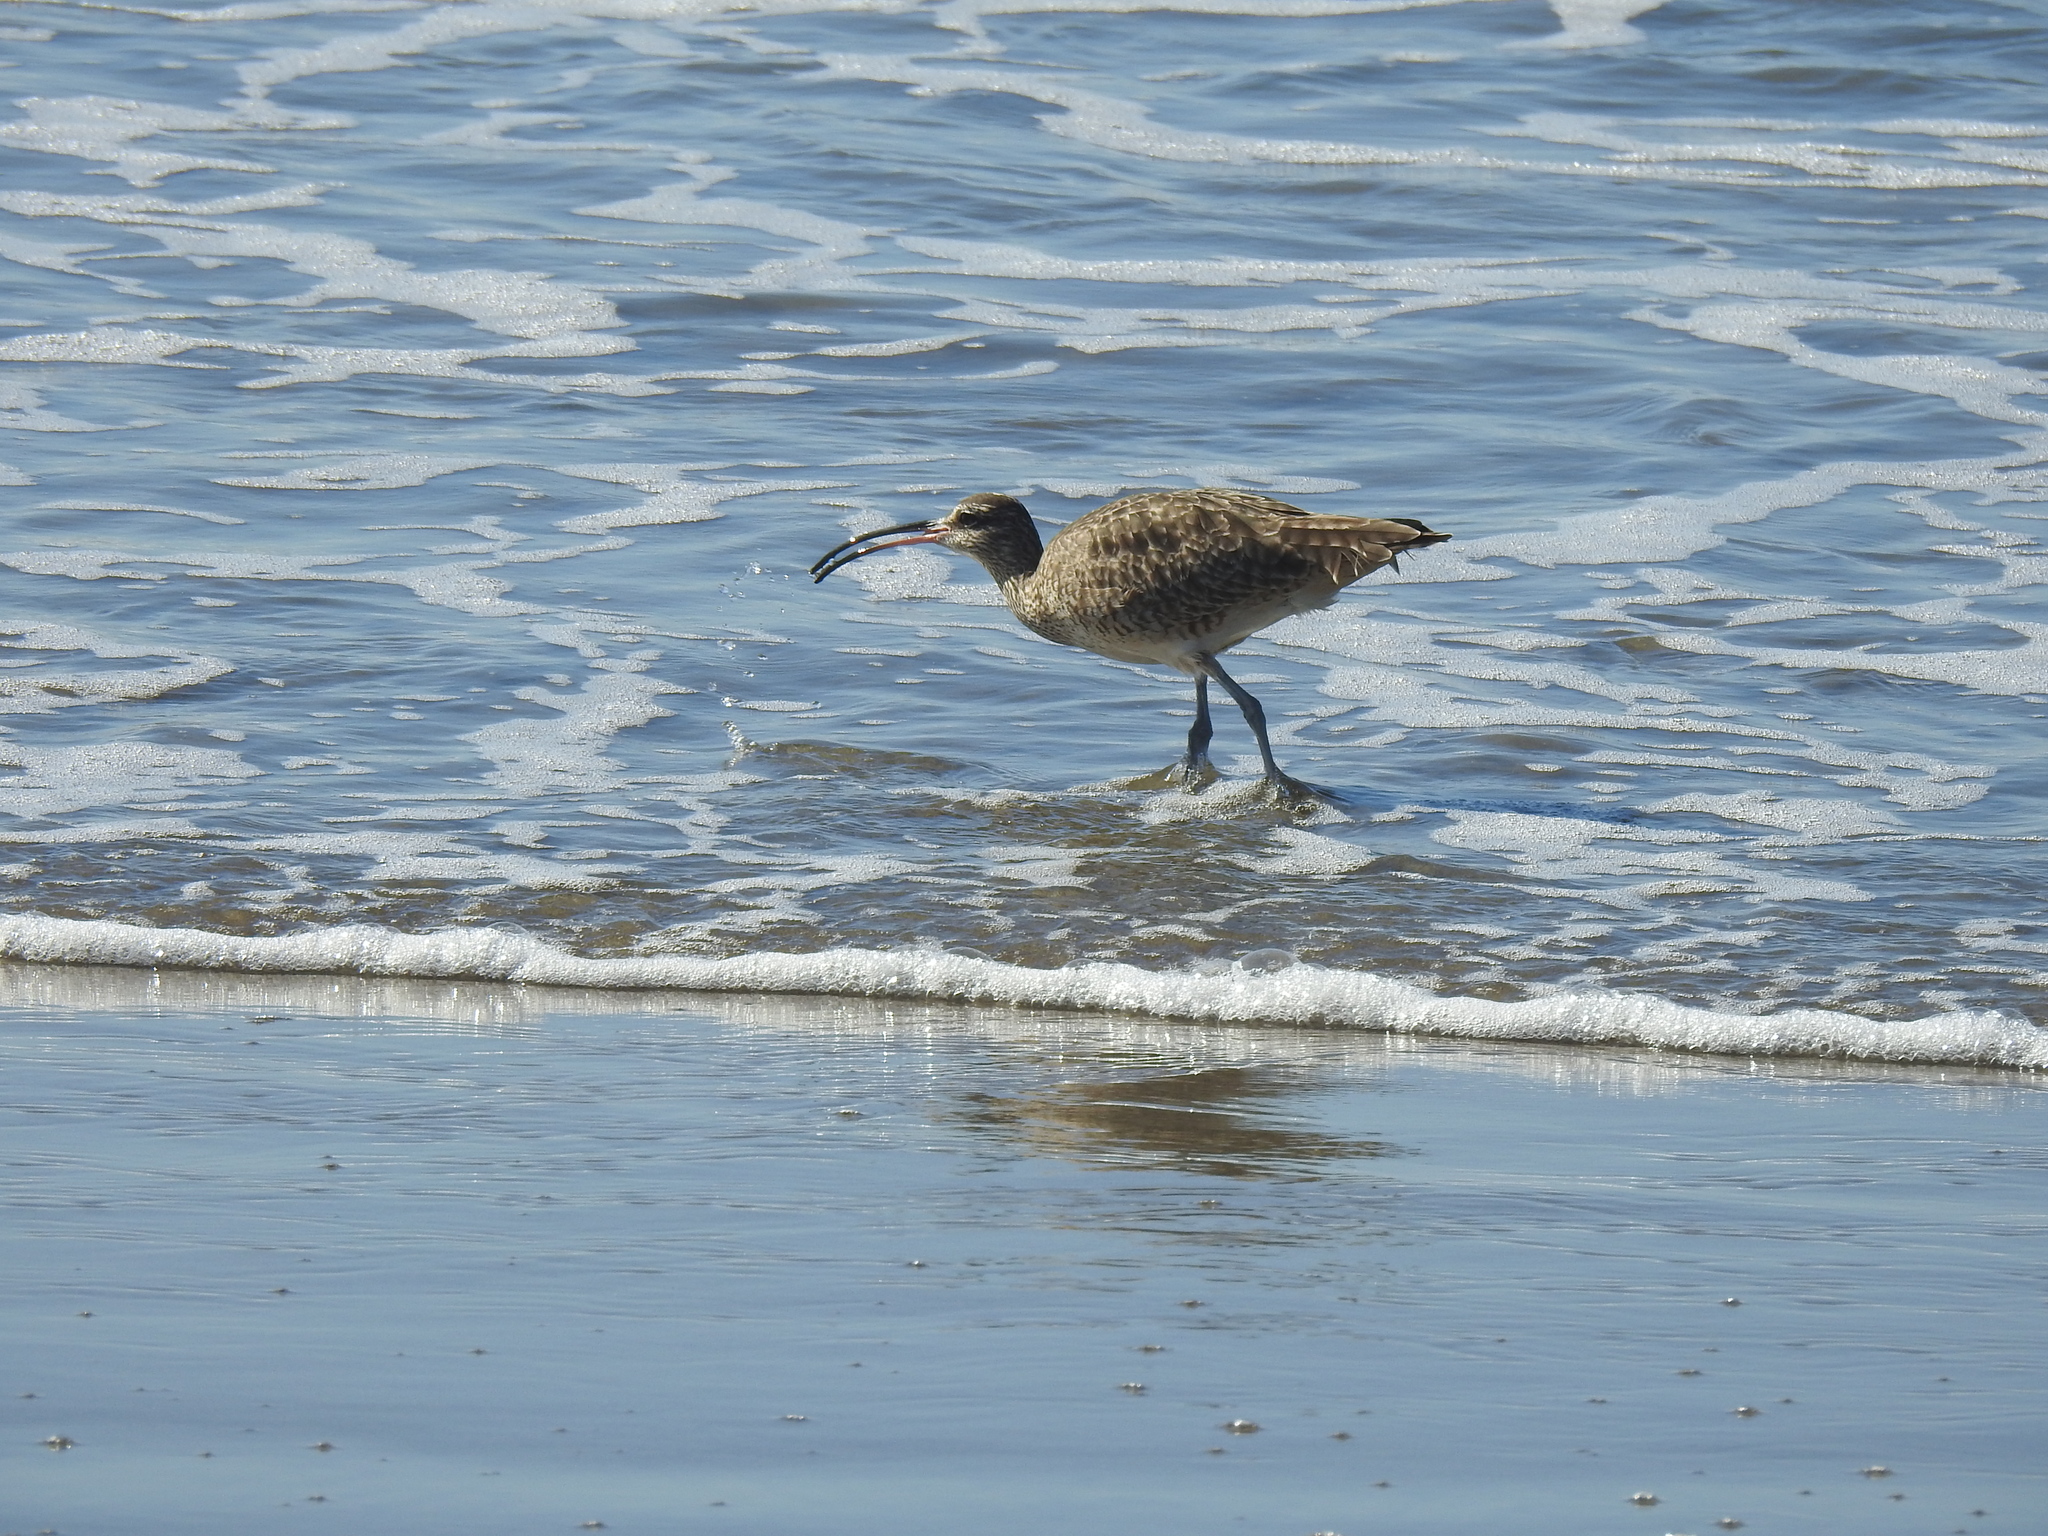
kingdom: Animalia
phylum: Chordata
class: Aves
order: Charadriiformes
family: Scolopacidae
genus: Numenius
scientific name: Numenius phaeopus
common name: Whimbrel
